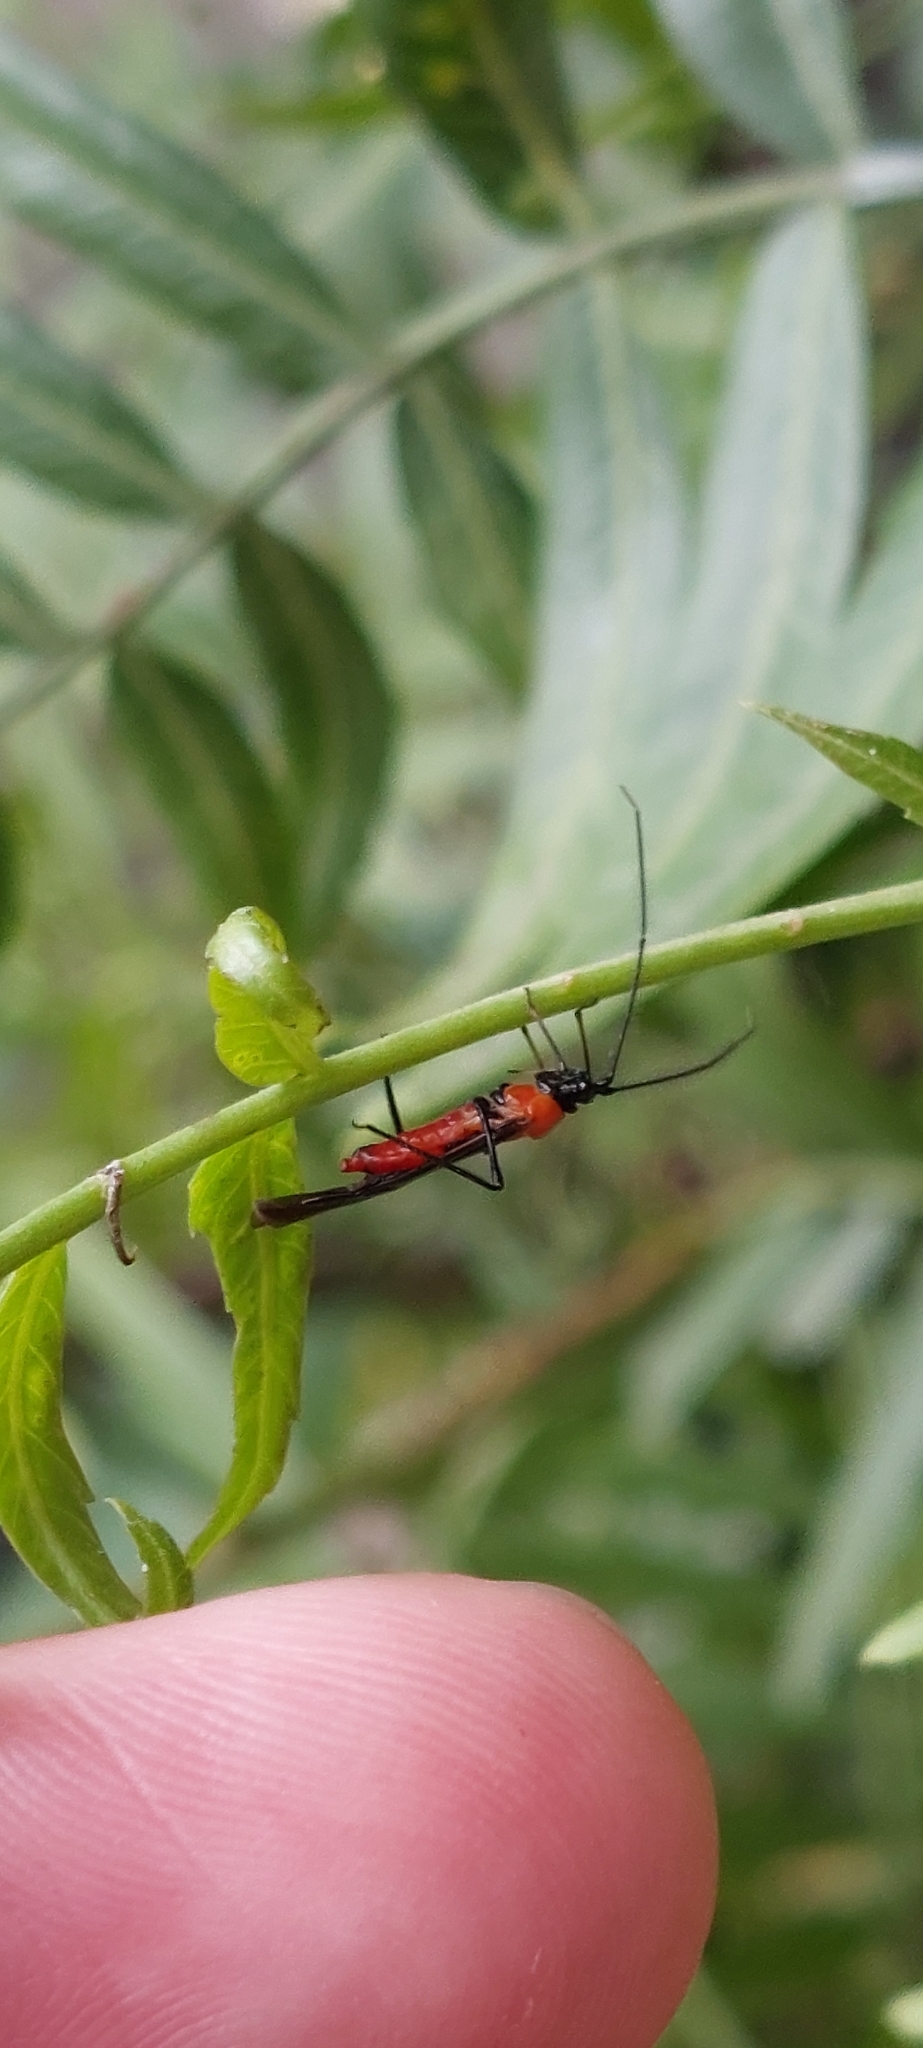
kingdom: Animalia
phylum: Arthropoda
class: Insecta
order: Hemiptera
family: Miridae
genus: Monalonion
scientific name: Monalonion velezangeli
